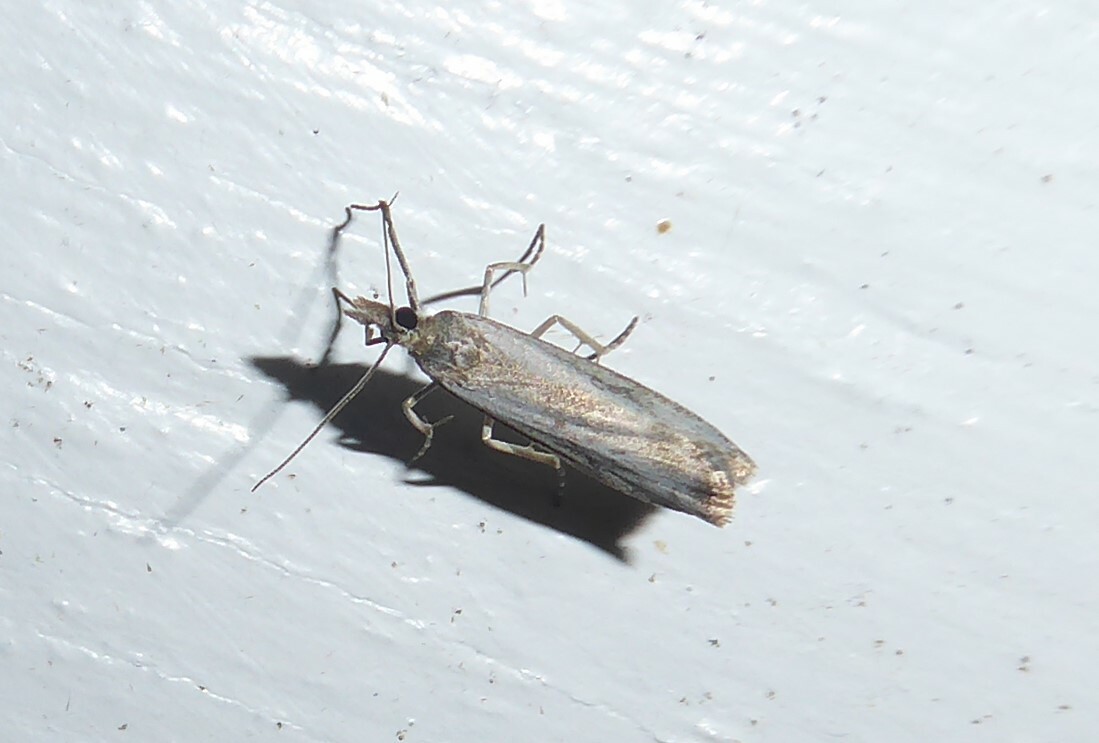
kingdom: Animalia
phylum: Arthropoda
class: Insecta
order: Lepidoptera
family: Crambidae
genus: Eudonia
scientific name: Eudonia leptalea
